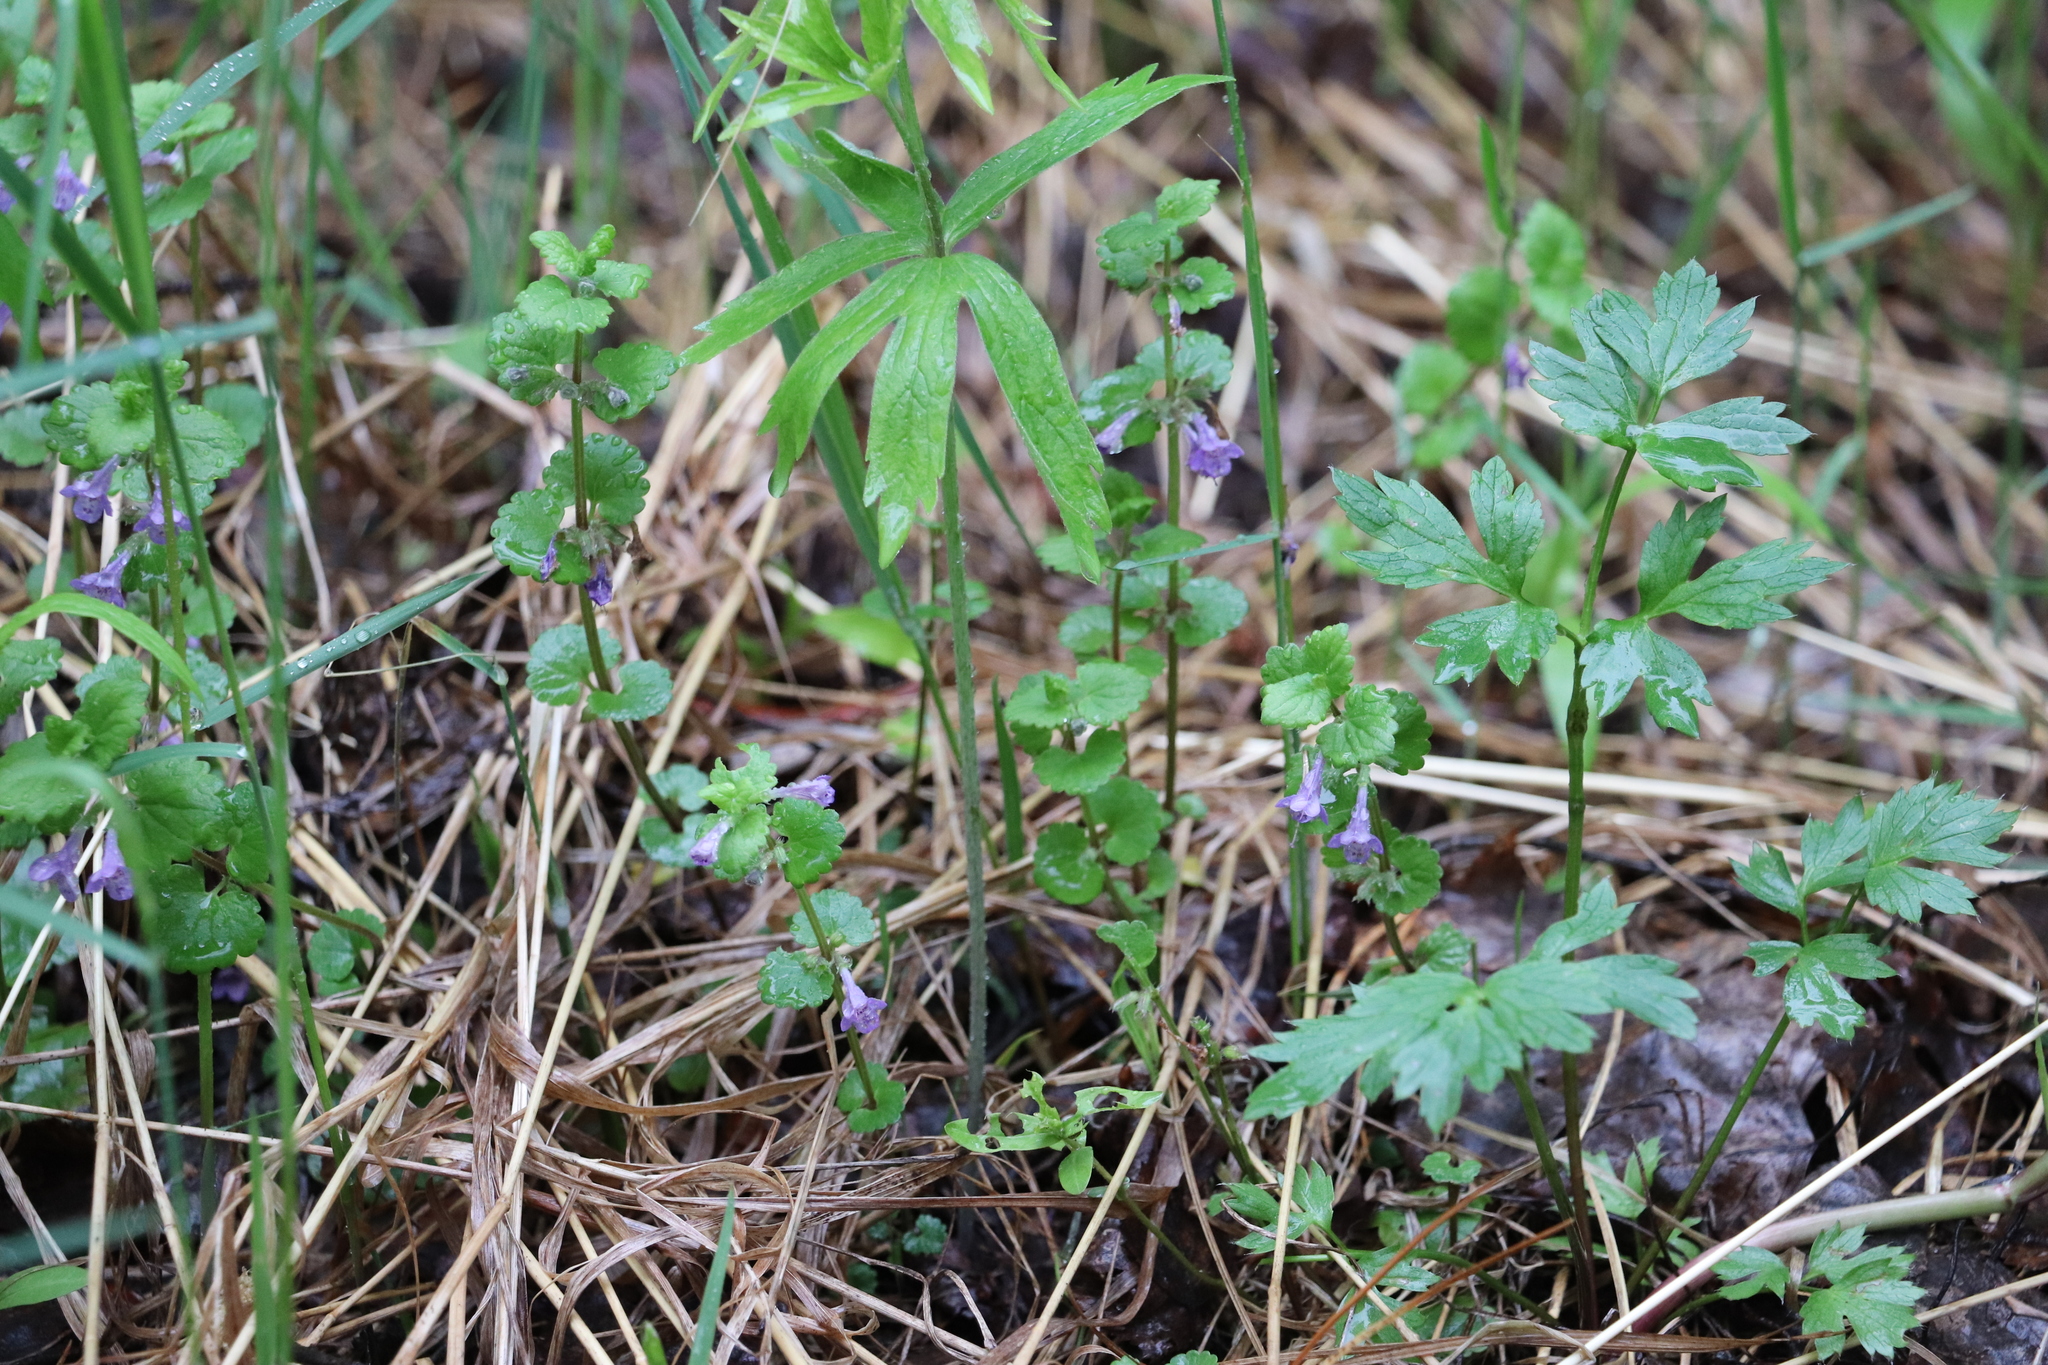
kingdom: Plantae
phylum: Tracheophyta
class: Magnoliopsida
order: Lamiales
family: Lamiaceae
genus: Glechoma
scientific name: Glechoma hederacea
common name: Ground ivy
